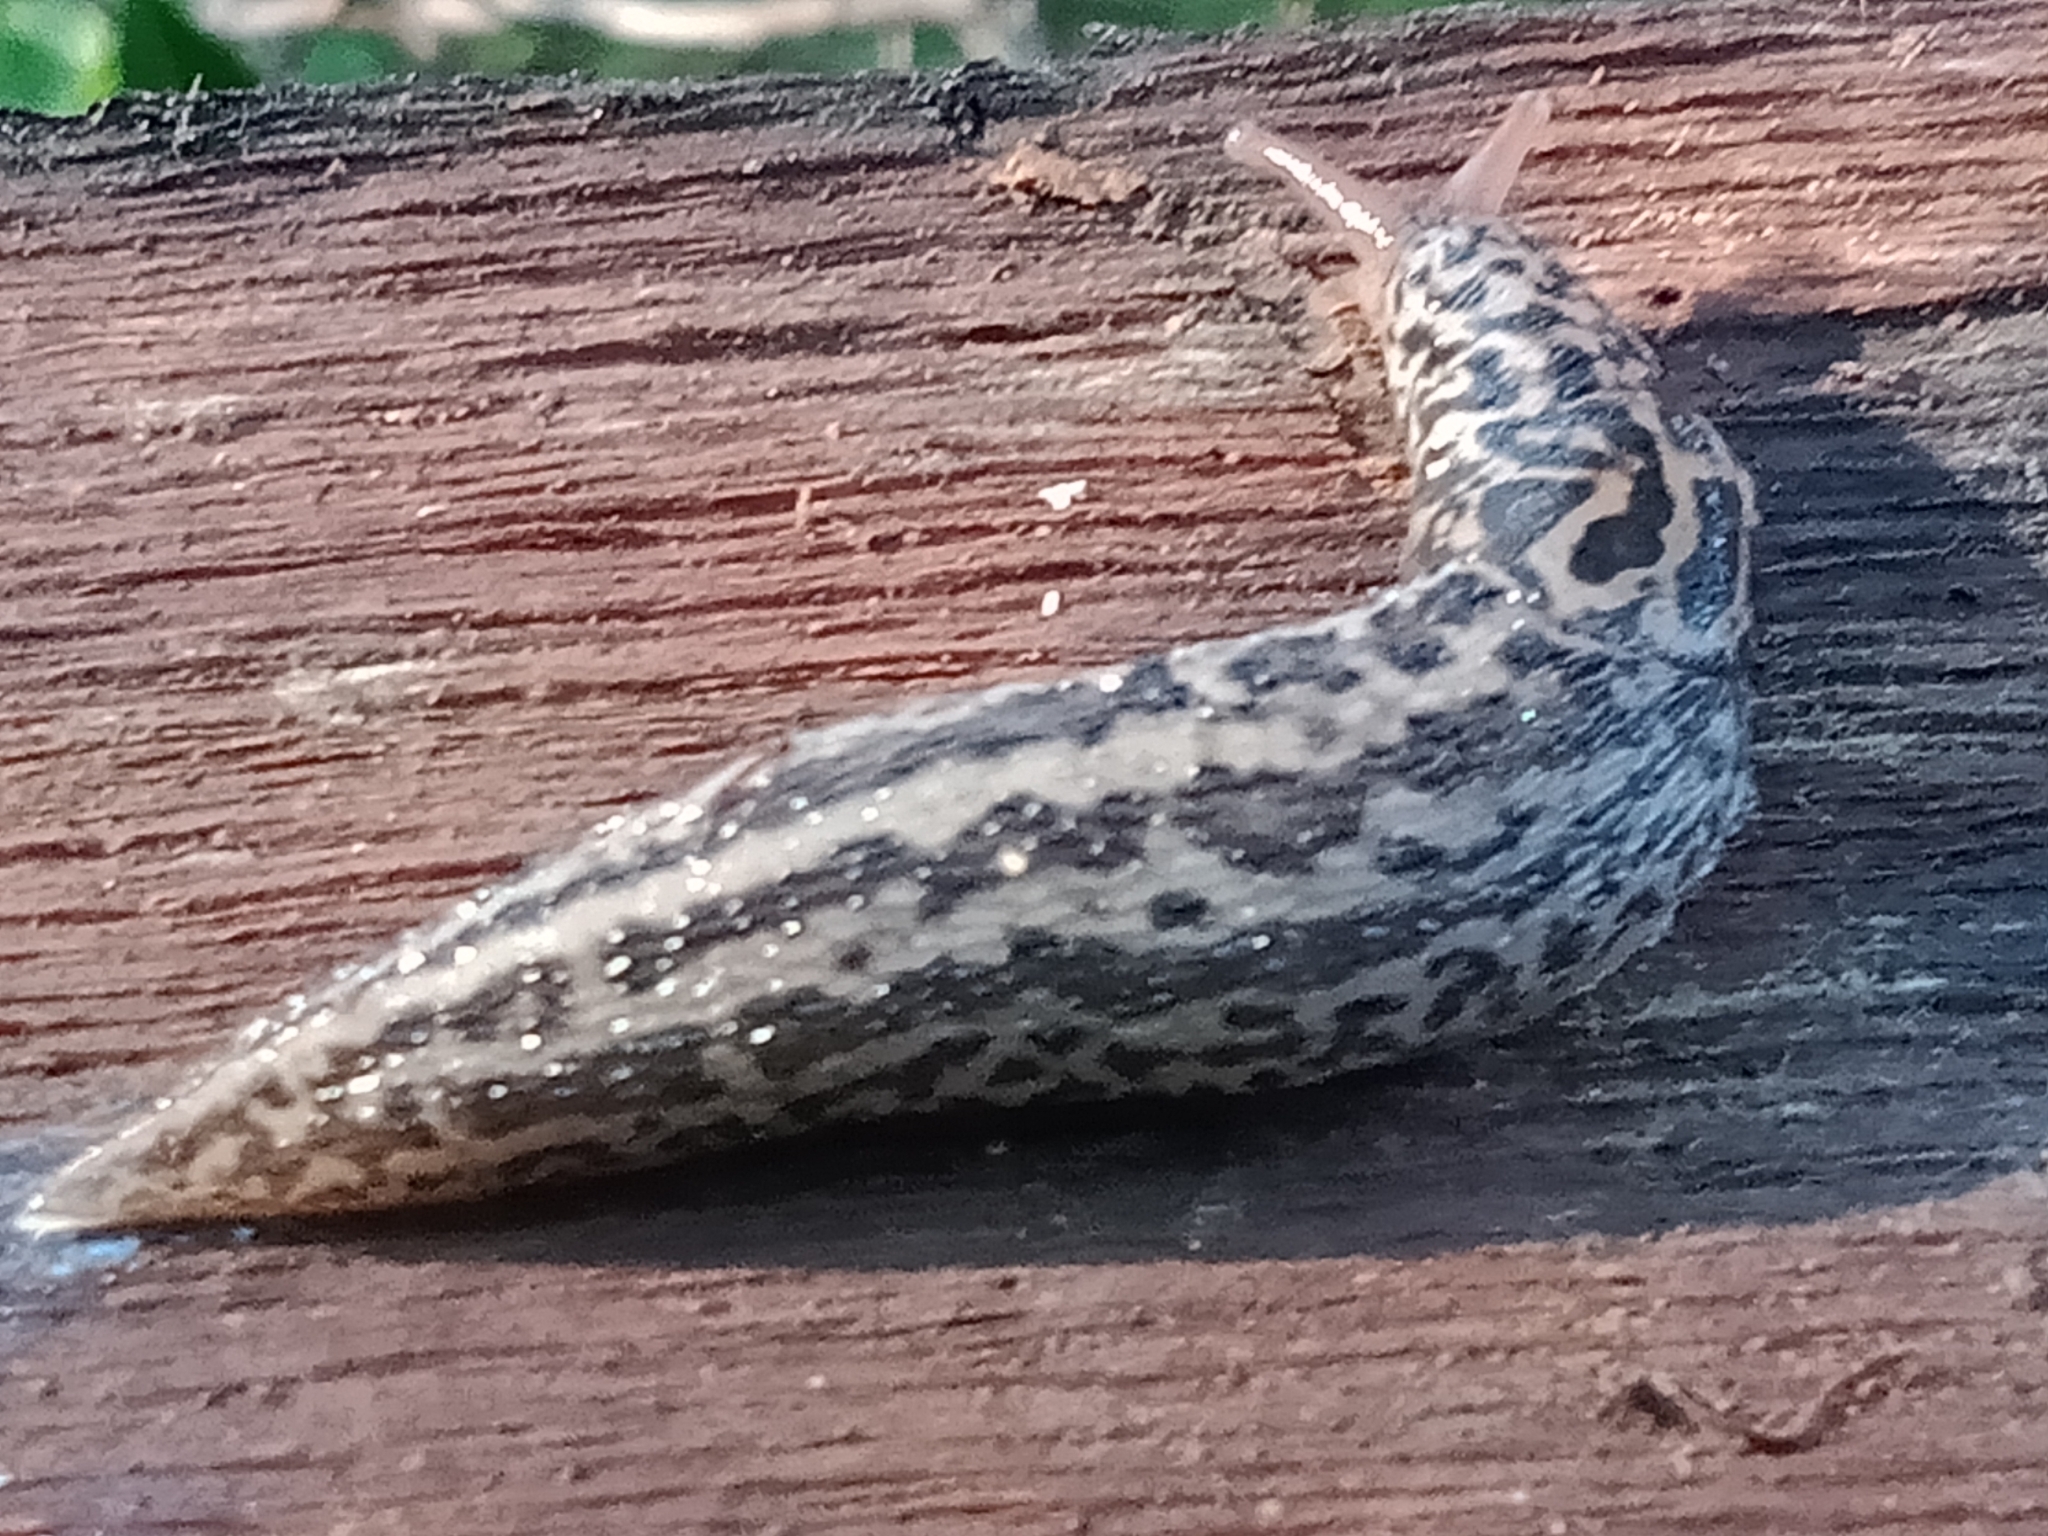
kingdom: Animalia
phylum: Mollusca
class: Gastropoda
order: Stylommatophora
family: Limacidae
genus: Limax
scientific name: Limax maximus
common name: Great grey slug
